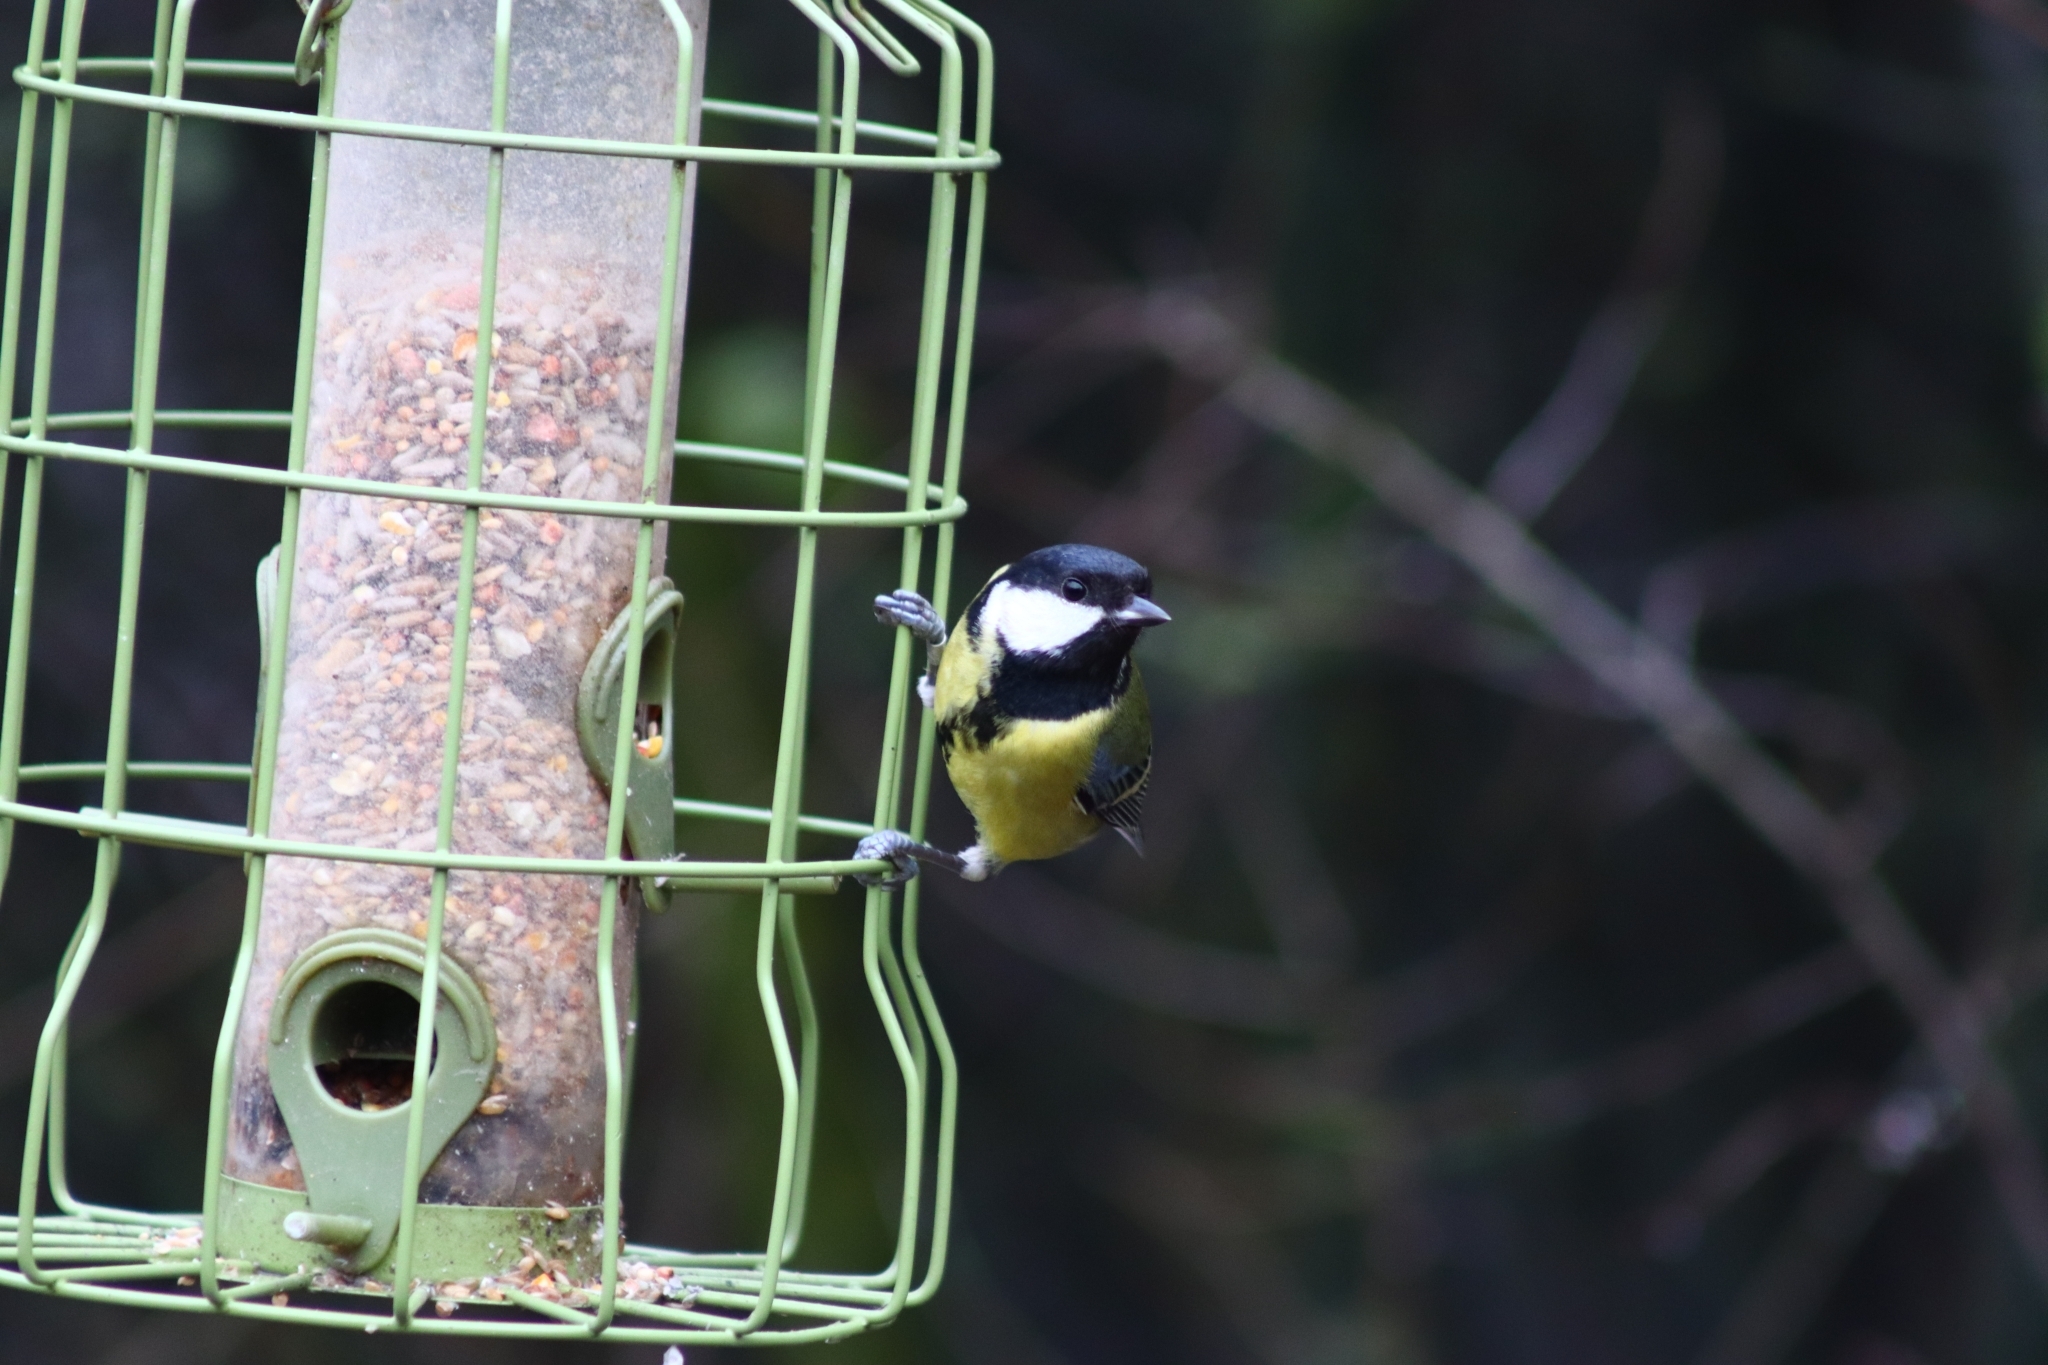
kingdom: Animalia
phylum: Chordata
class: Aves
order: Passeriformes
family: Paridae
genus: Parus
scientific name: Parus major
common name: Great tit
